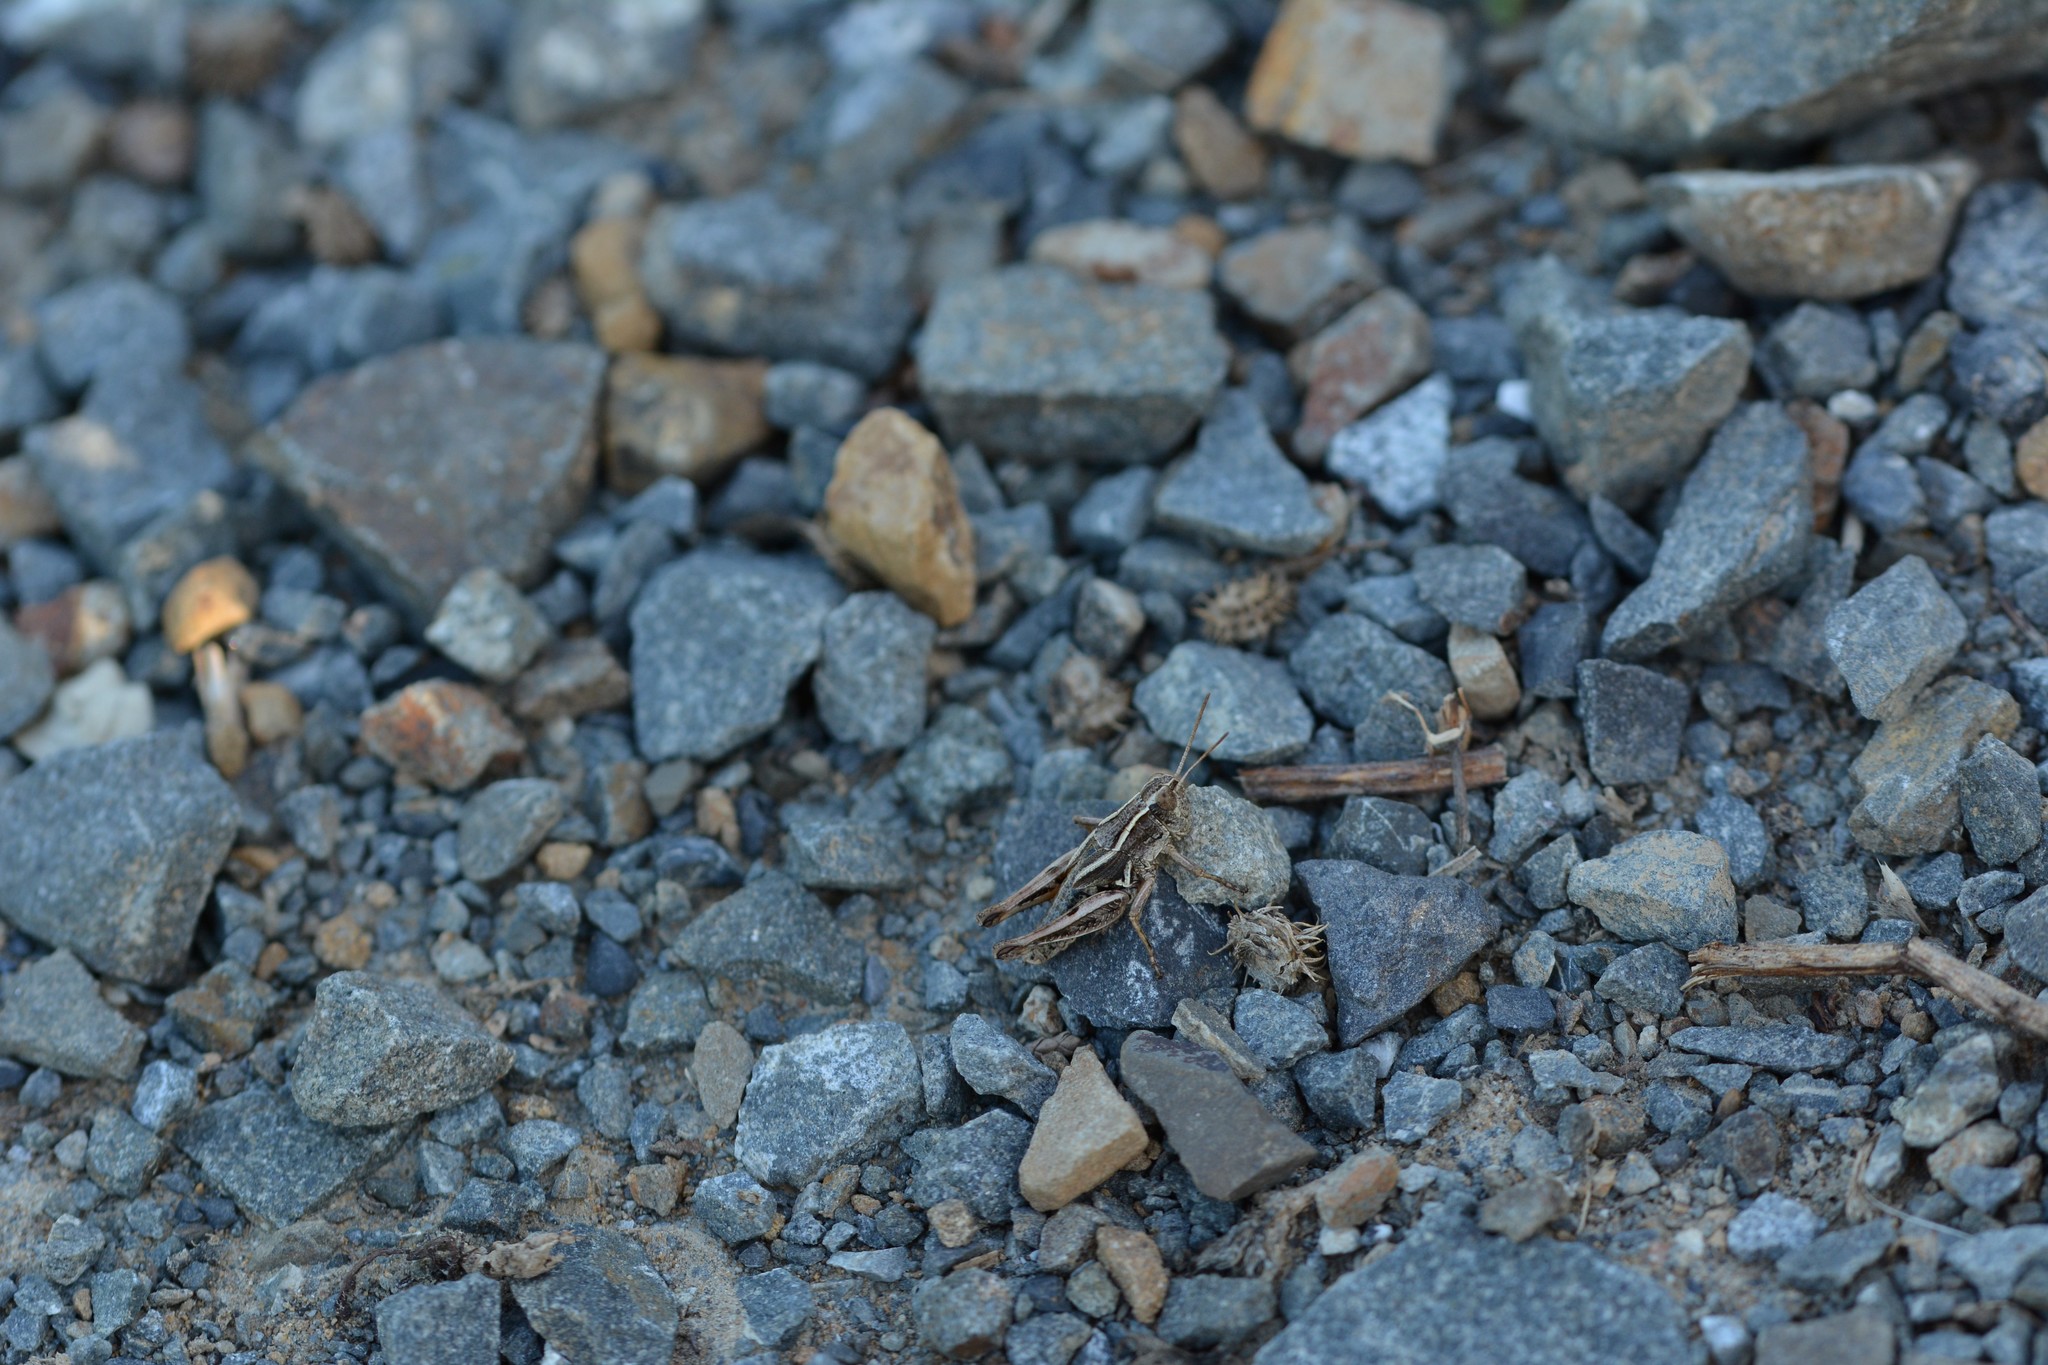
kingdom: Animalia
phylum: Arthropoda
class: Insecta
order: Orthoptera
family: Acrididae
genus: Phaulacridium
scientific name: Phaulacridium marginale
